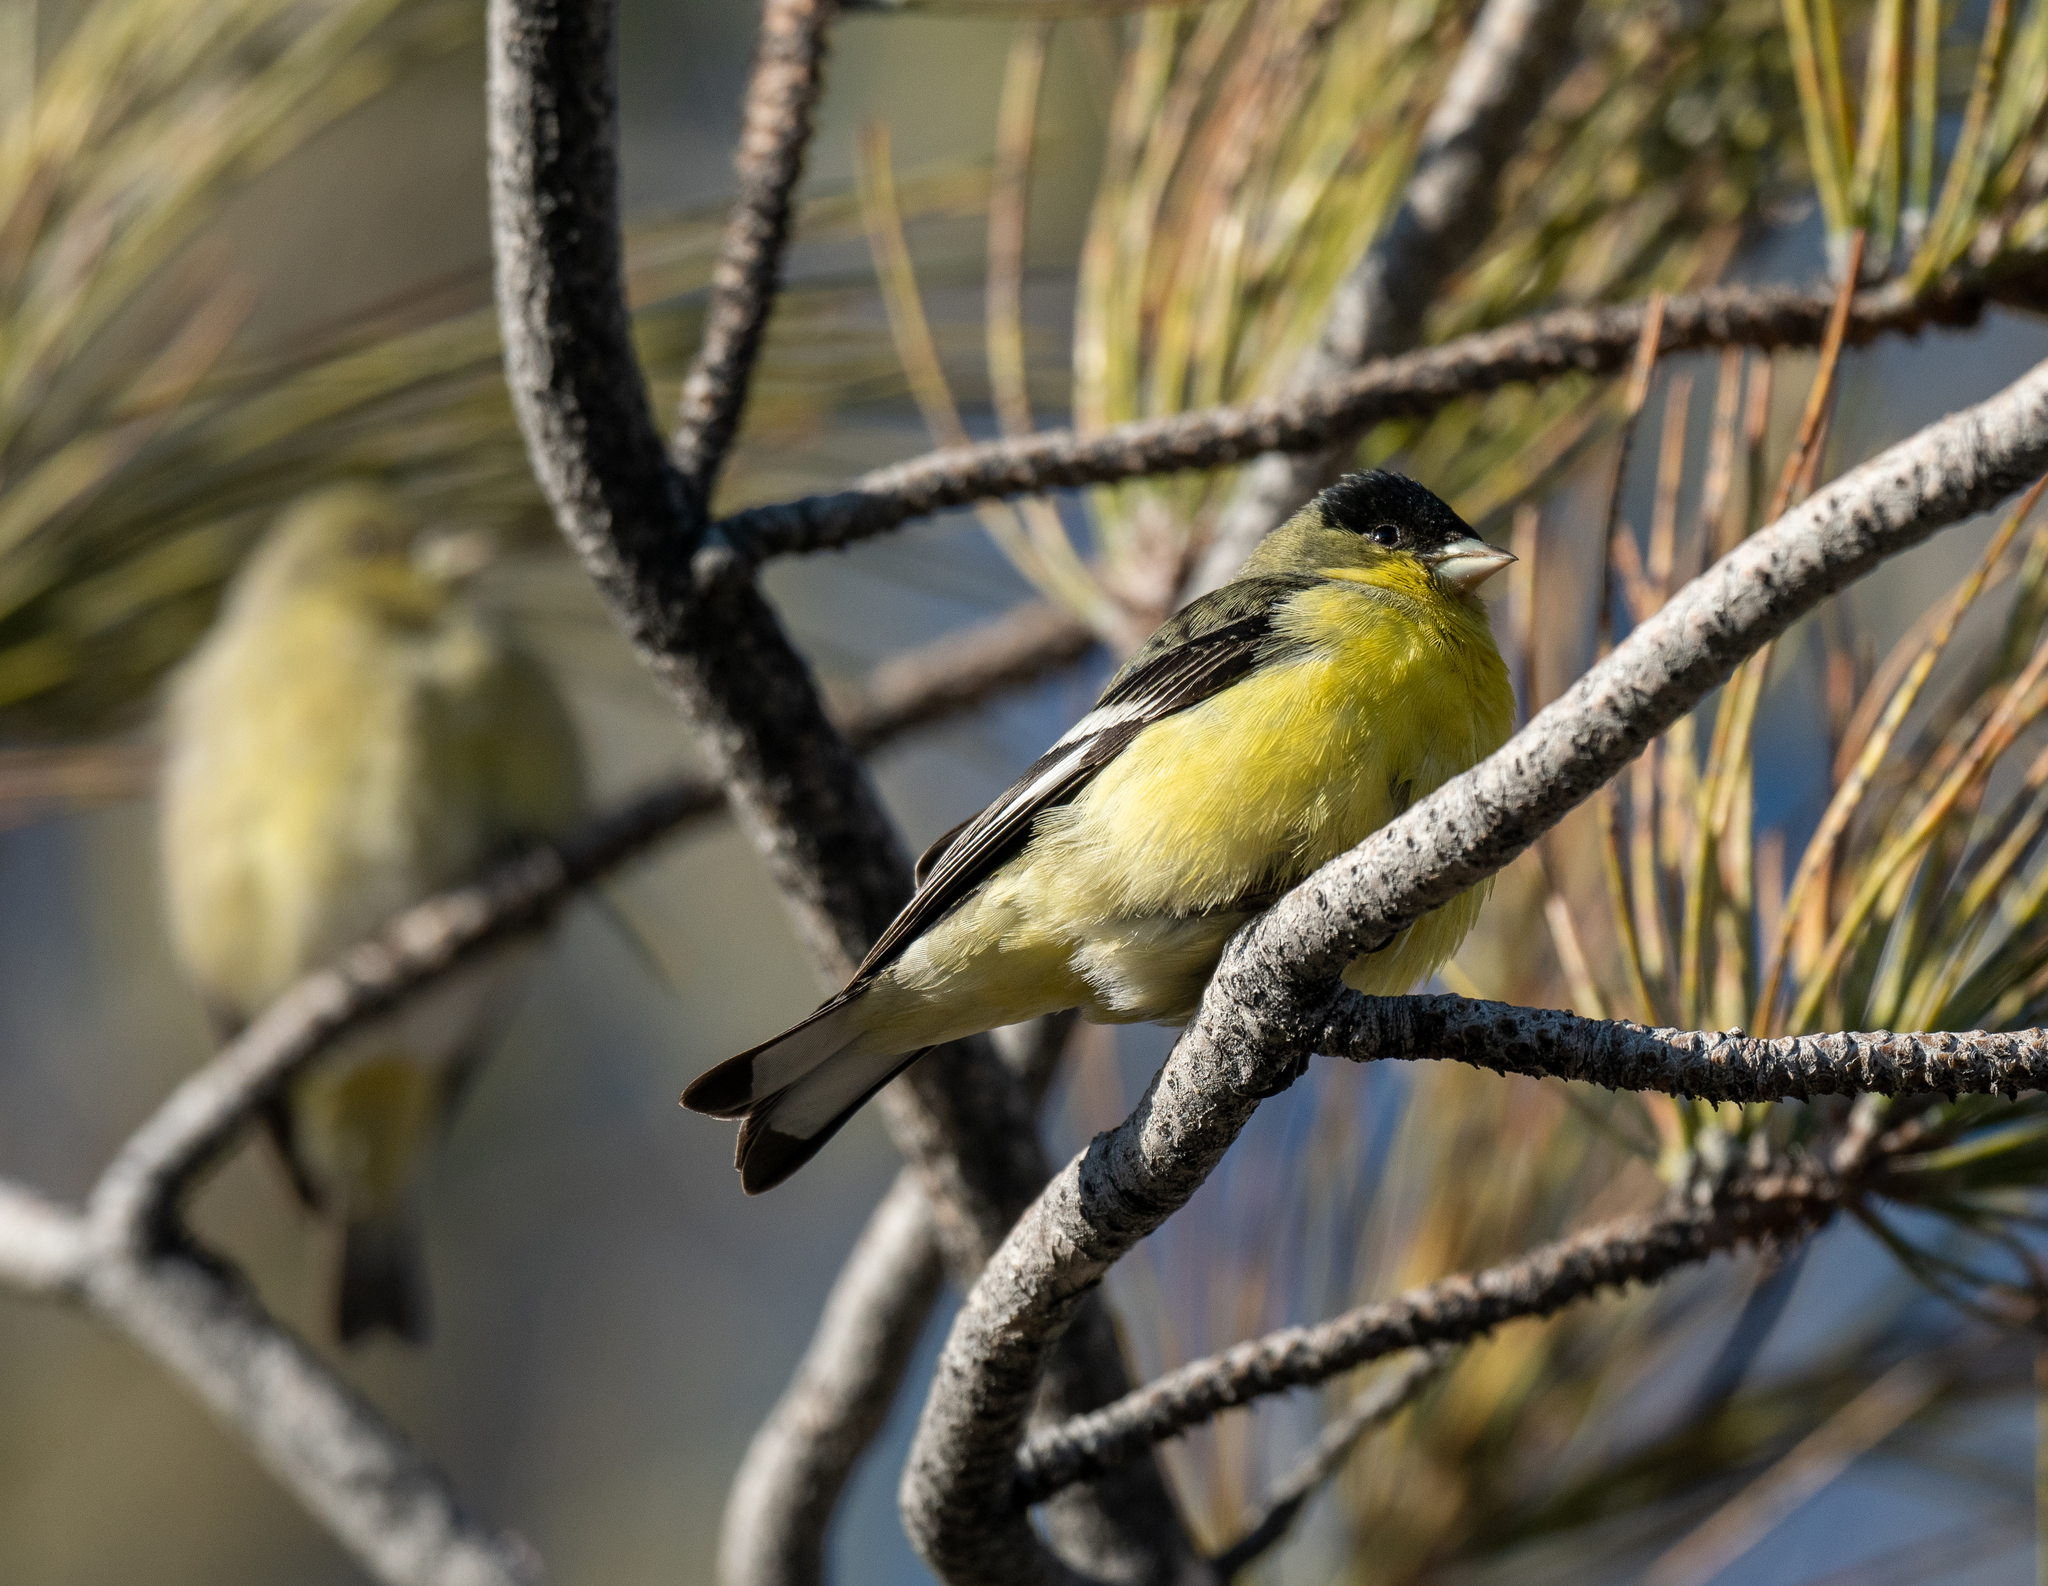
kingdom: Animalia
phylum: Chordata
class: Aves
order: Passeriformes
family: Fringillidae
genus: Spinus
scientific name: Spinus psaltria
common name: Lesser goldfinch
